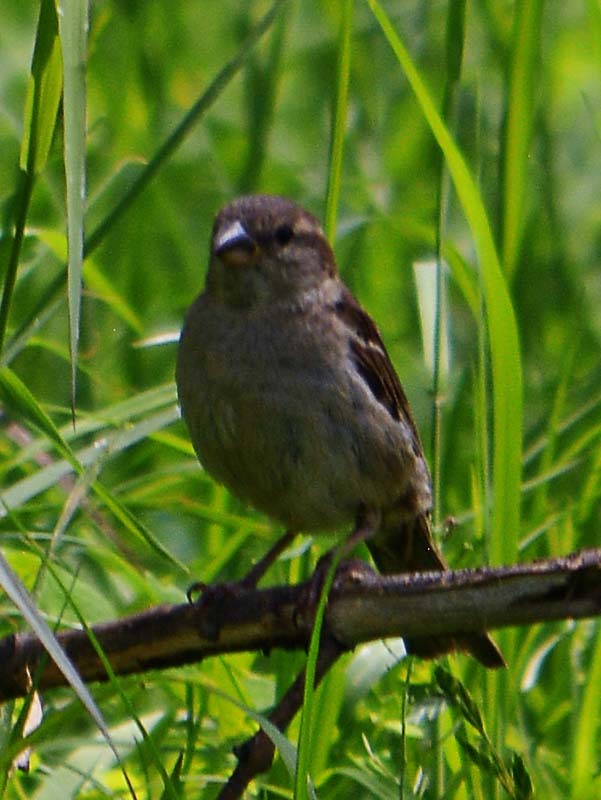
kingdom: Animalia
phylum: Chordata
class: Aves
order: Passeriformes
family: Passeridae
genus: Passer
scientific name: Passer domesticus
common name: House sparrow
